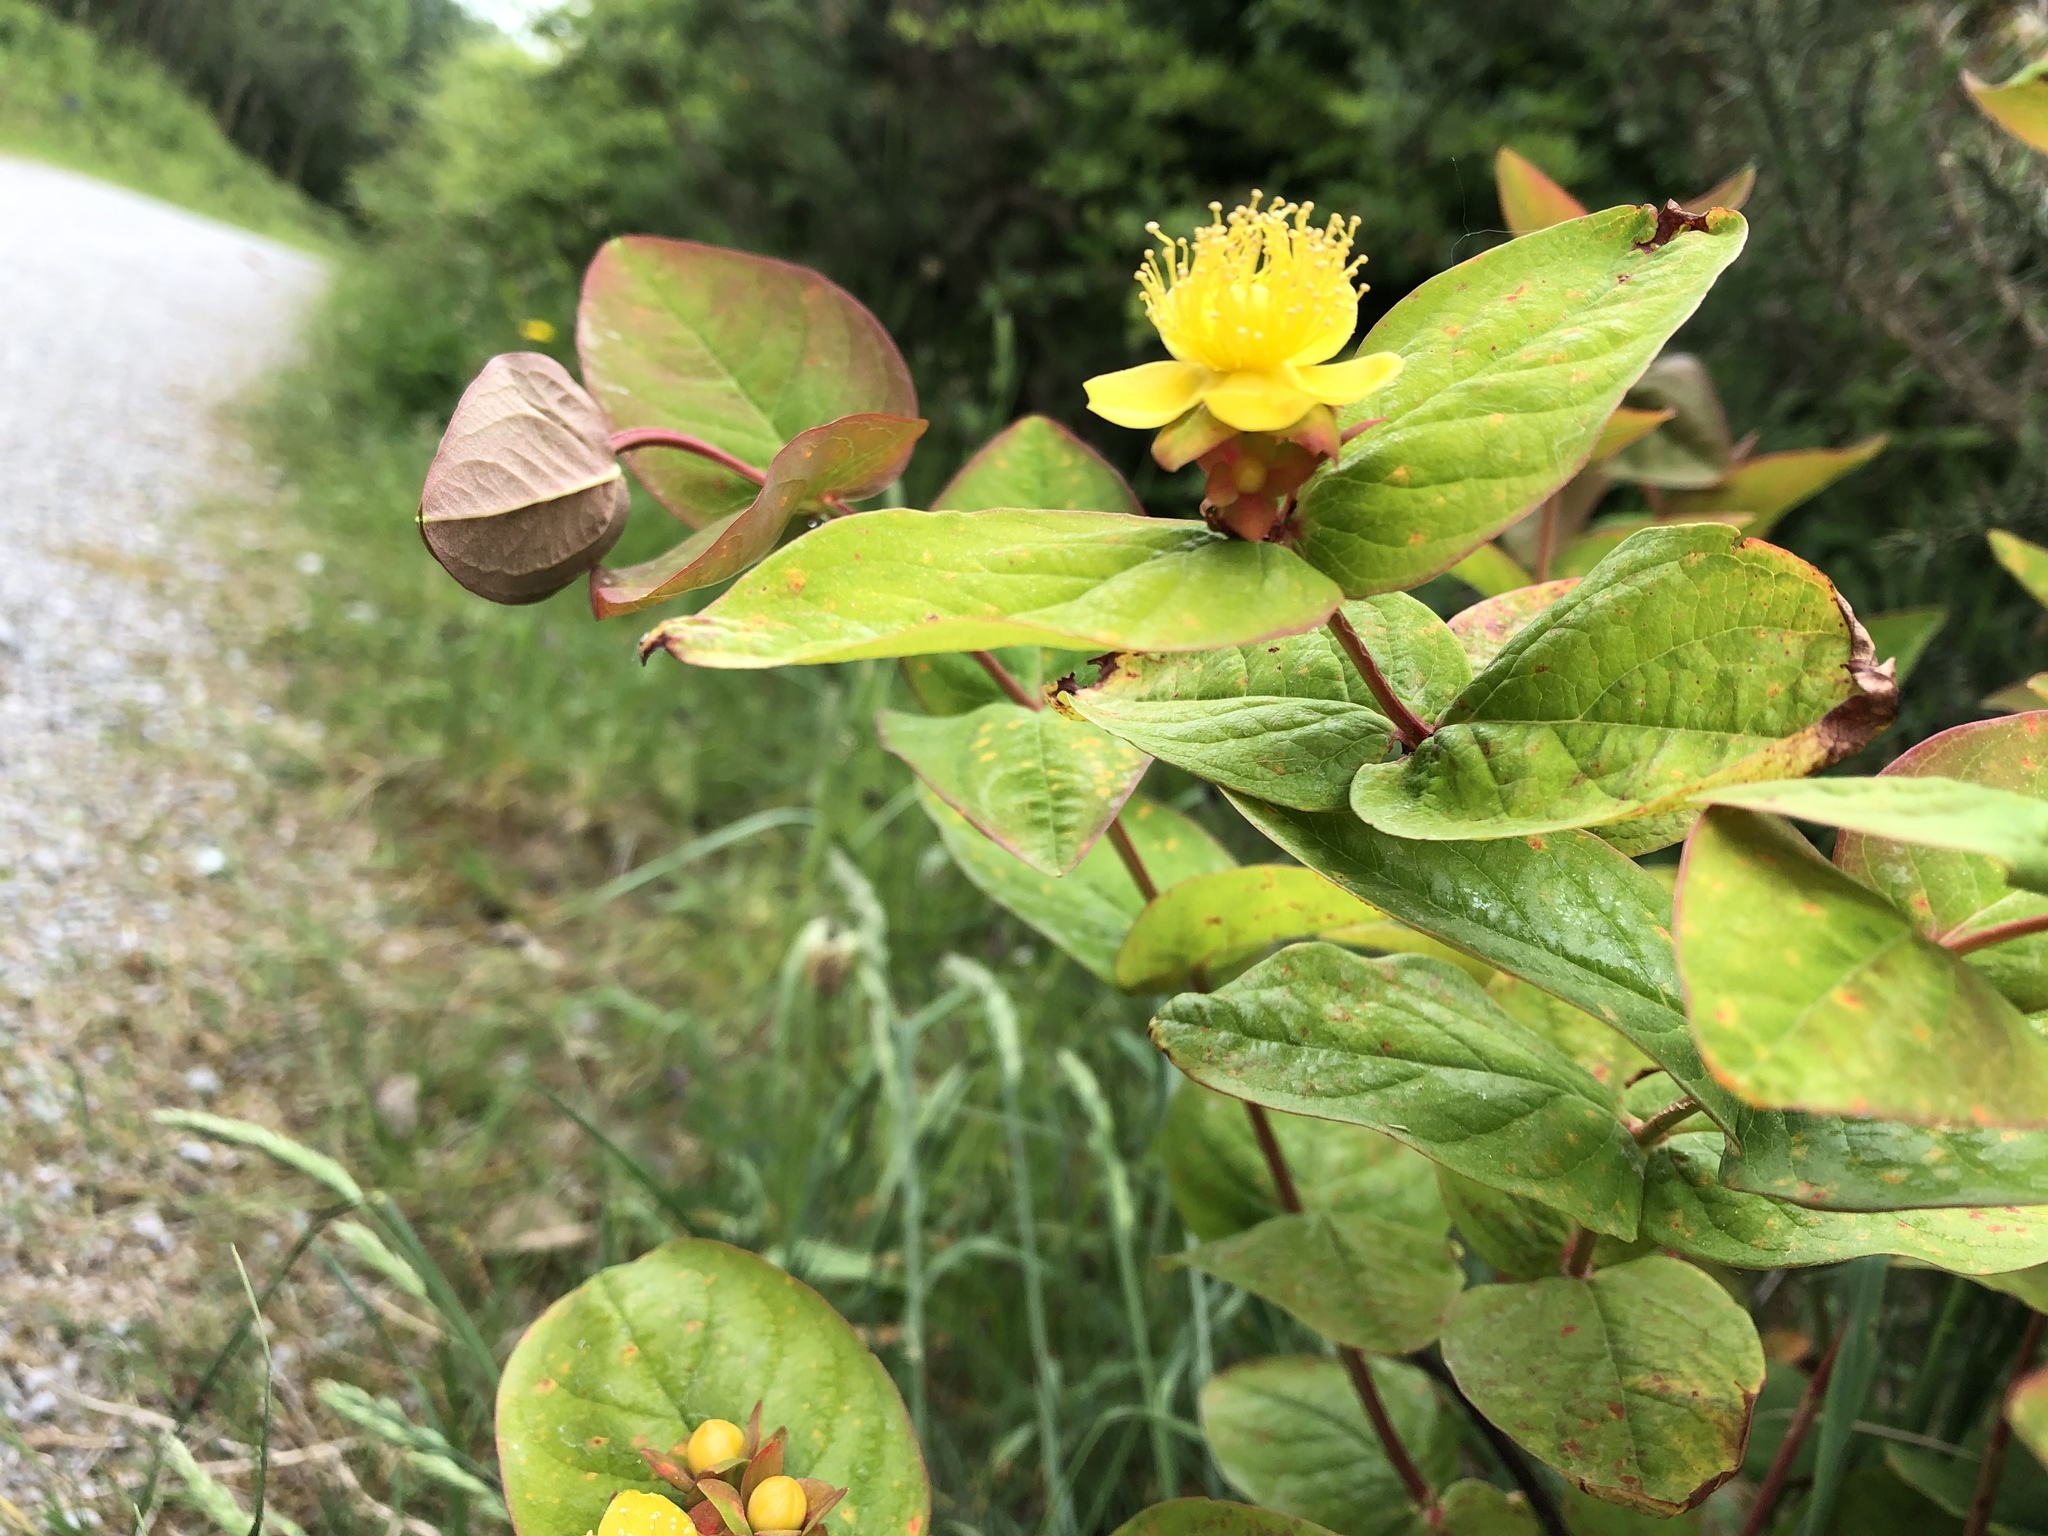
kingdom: Plantae
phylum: Tracheophyta
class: Magnoliopsida
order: Malpighiales
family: Hypericaceae
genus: Hypericum
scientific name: Hypericum androsaemum
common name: Sweet-amber
